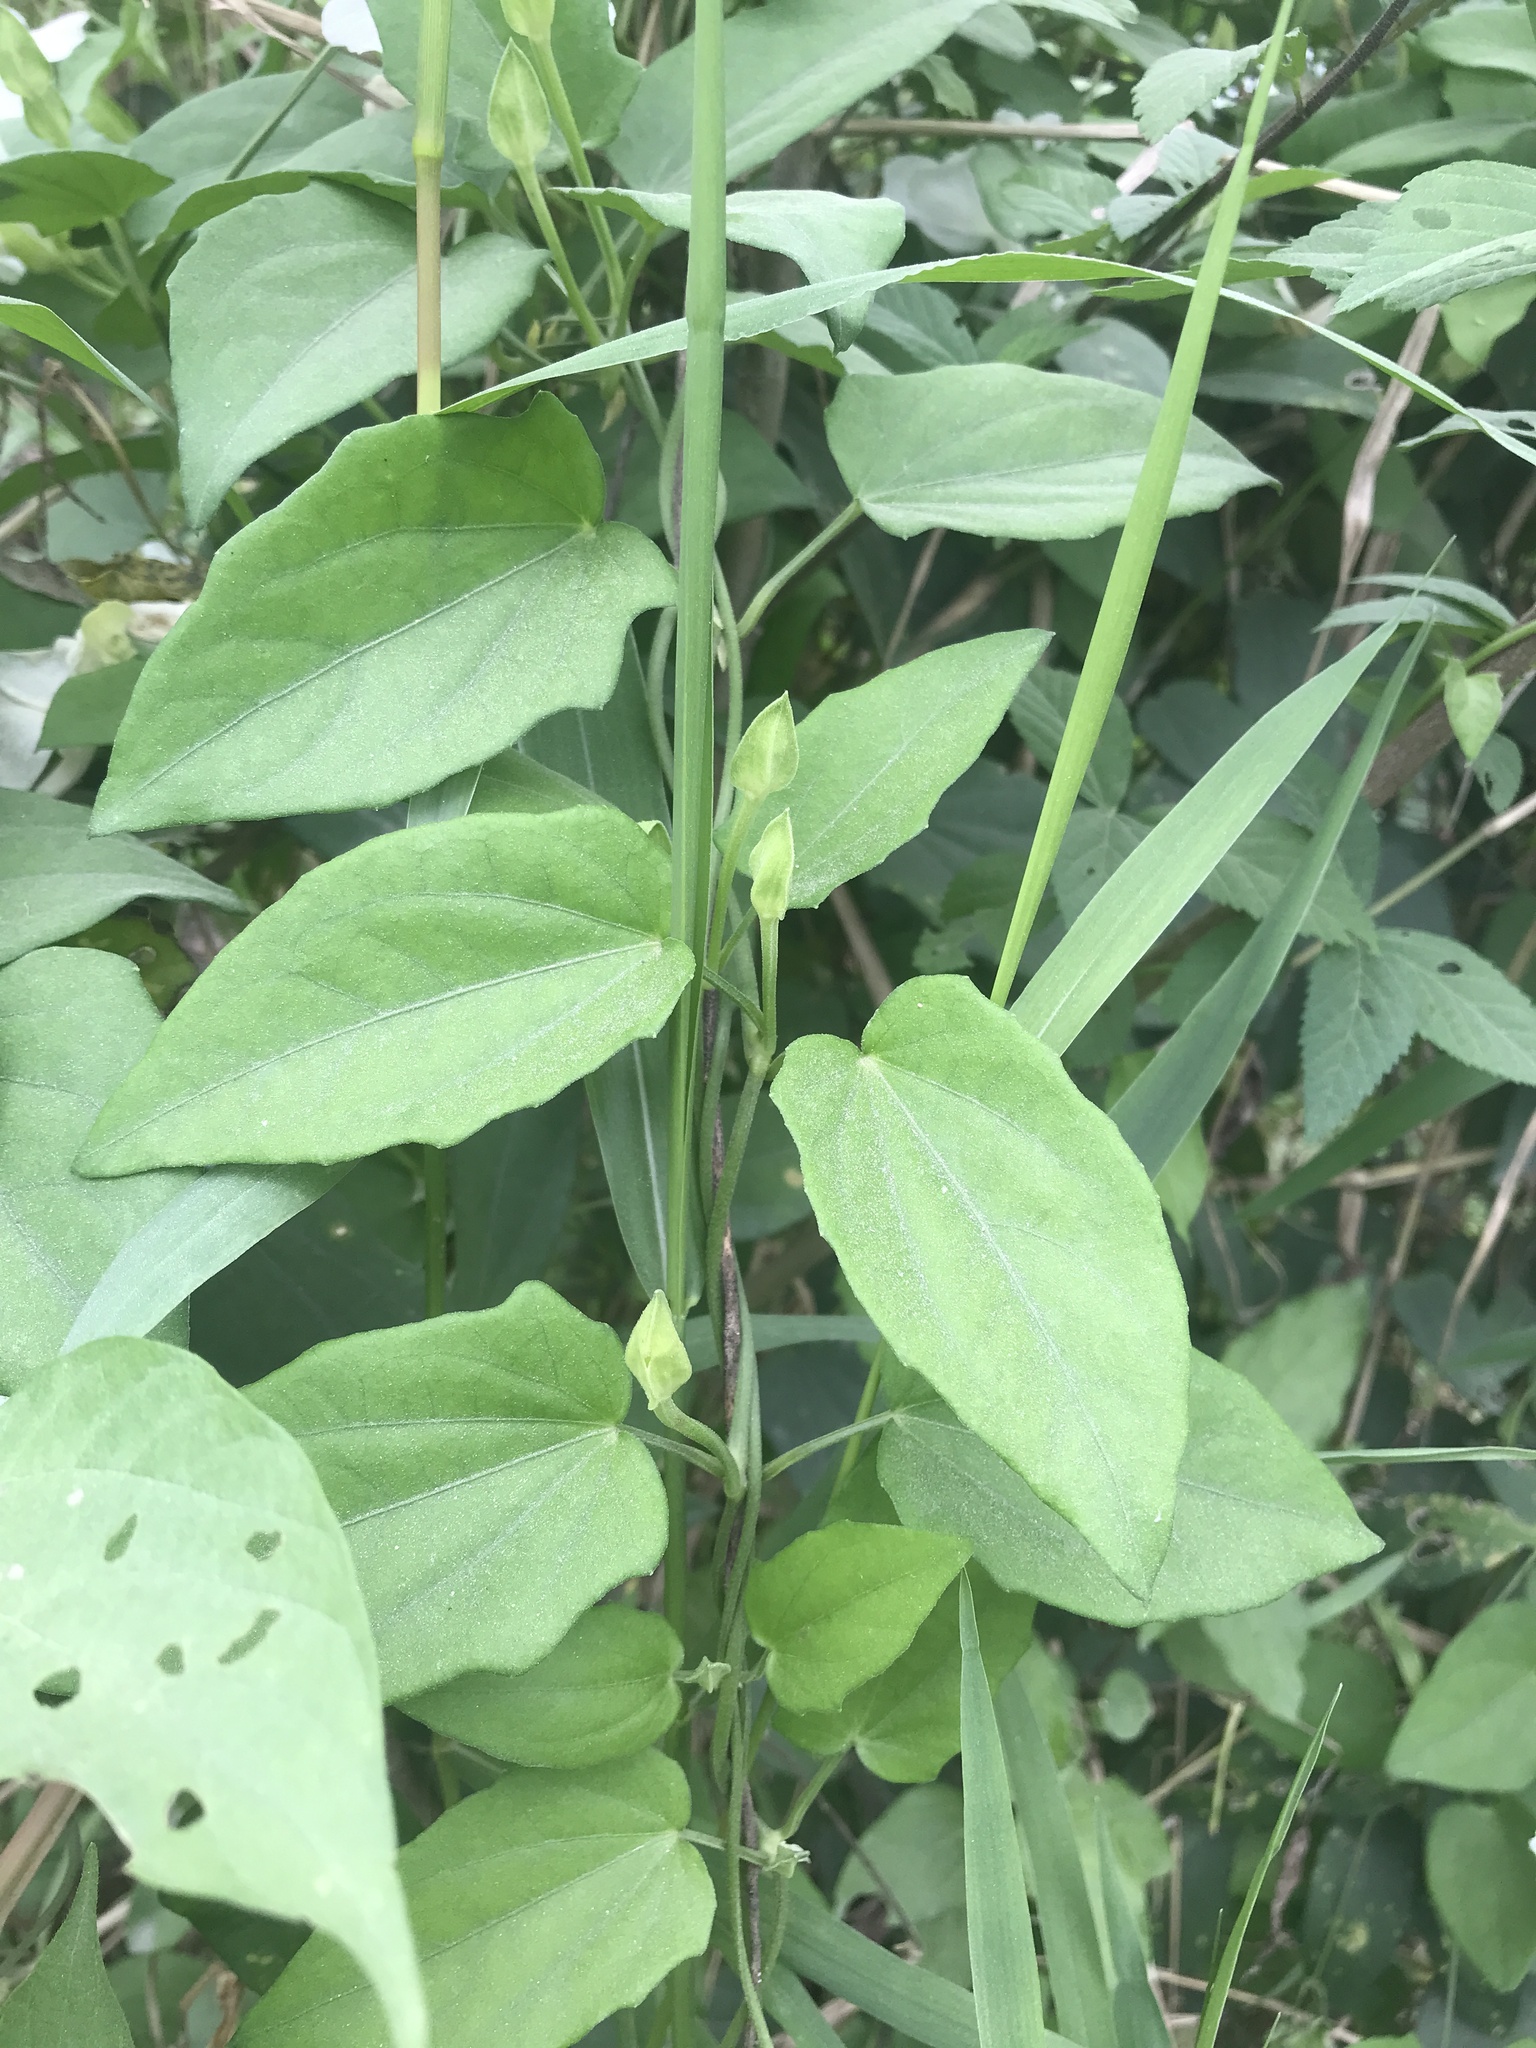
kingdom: Plantae
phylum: Tracheophyta
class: Magnoliopsida
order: Lamiales
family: Acanthaceae
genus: Thunbergia
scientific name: Thunbergia fragrans
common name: Whitelady
